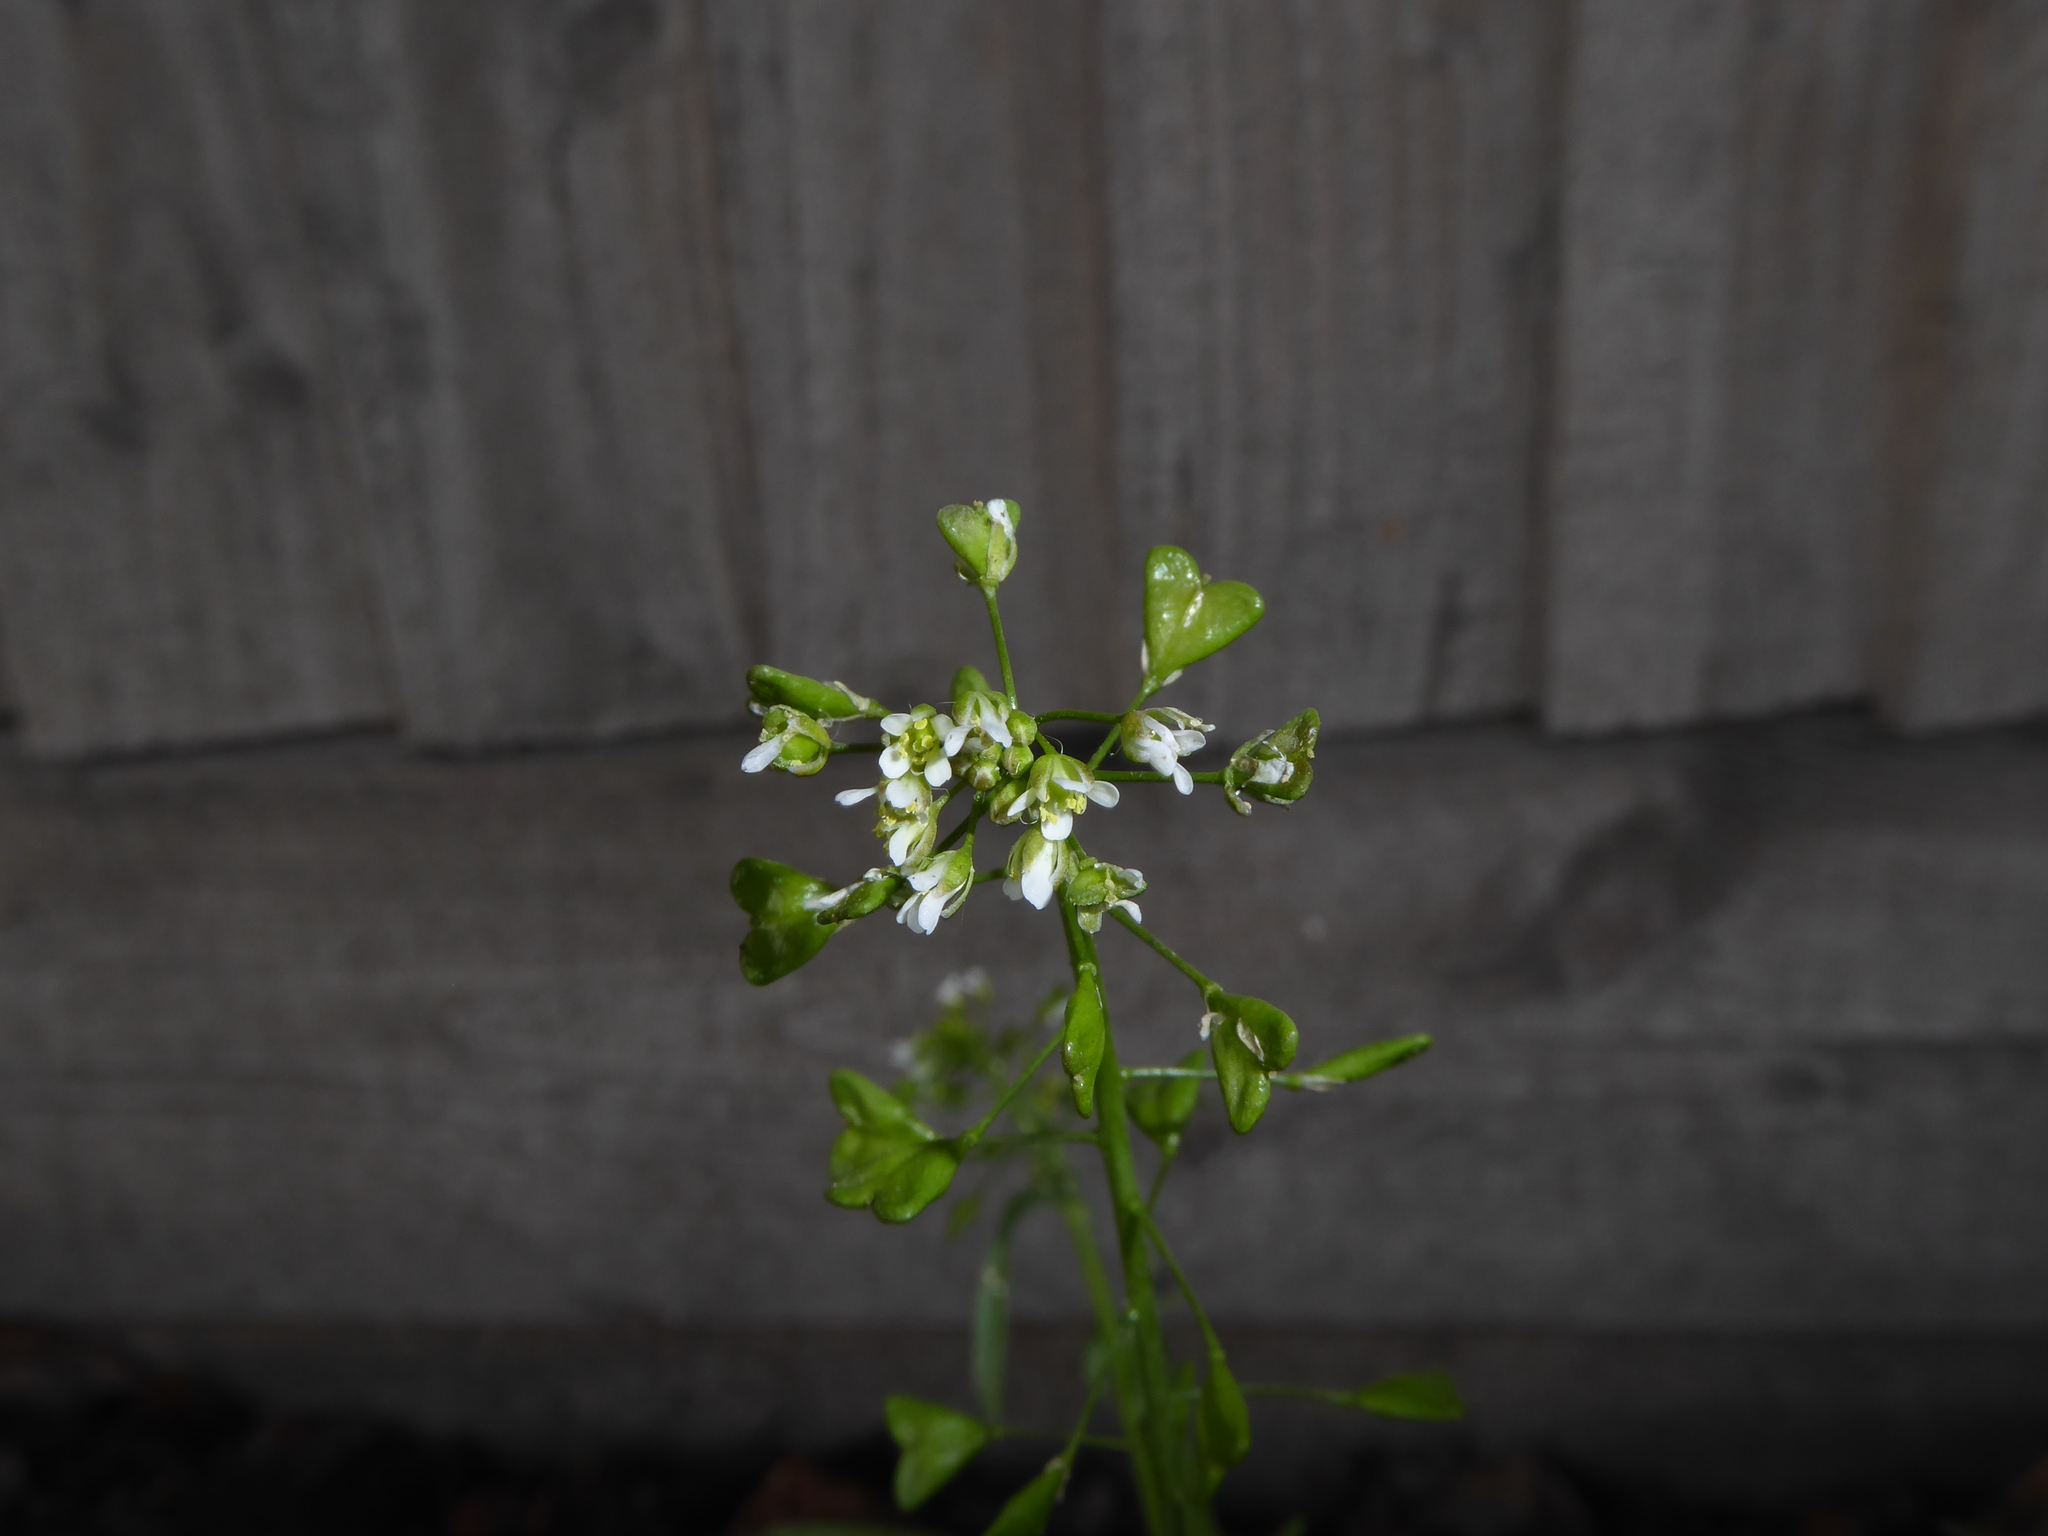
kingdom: Plantae
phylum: Tracheophyta
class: Magnoliopsida
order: Brassicales
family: Brassicaceae
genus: Capsella
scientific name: Capsella bursa-pastoris
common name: Shepherd's purse
